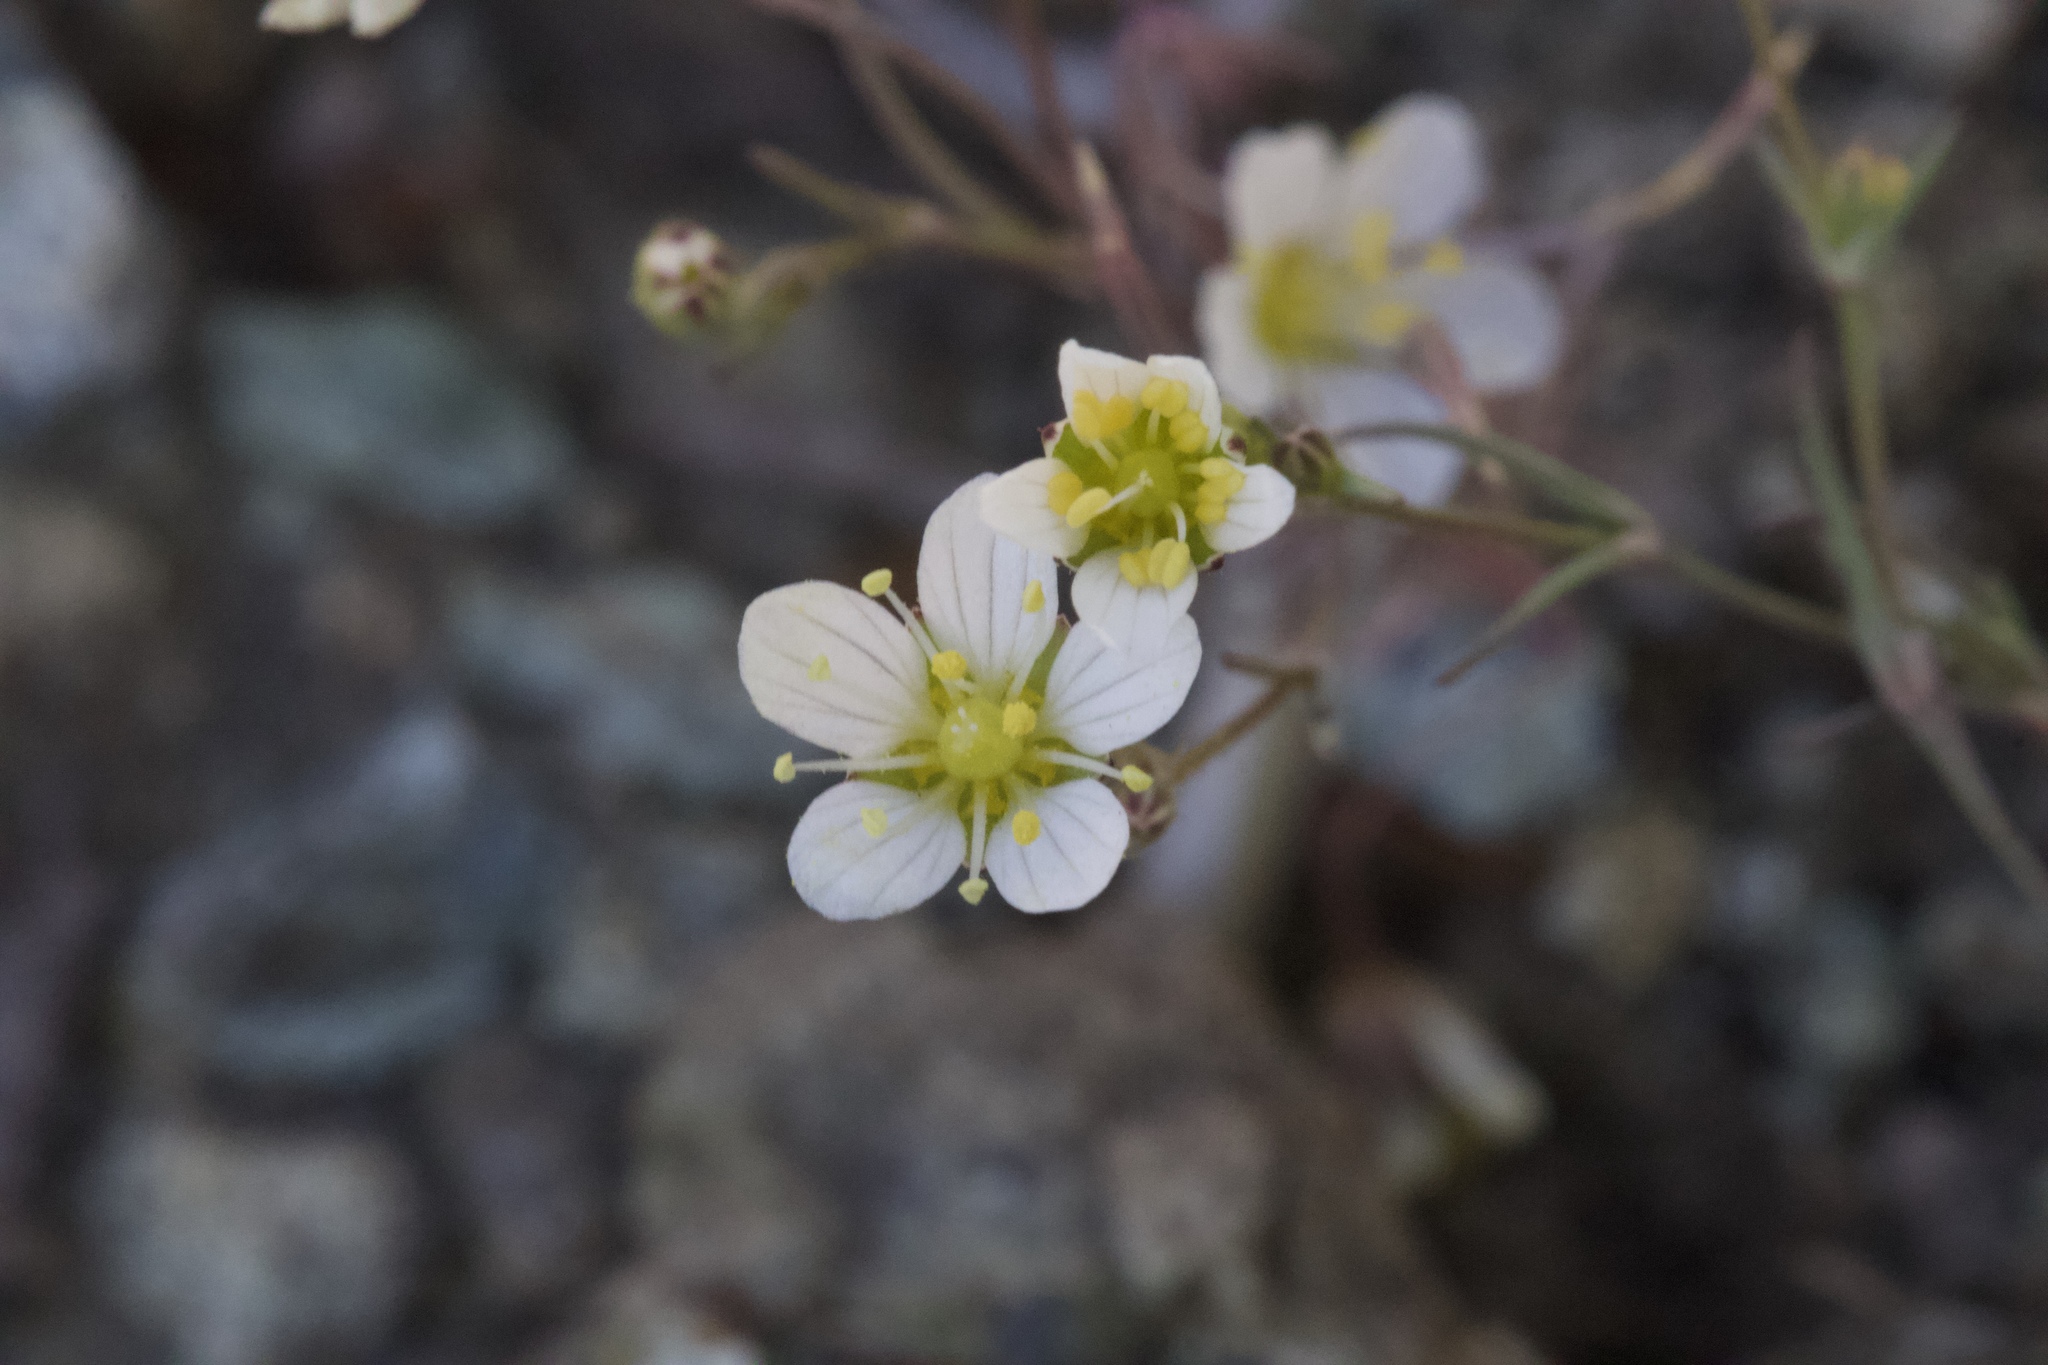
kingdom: Plantae
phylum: Tracheophyta
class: Magnoliopsida
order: Caryophyllales
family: Caryophyllaceae
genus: Sabulina
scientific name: Sabulina douglasii
